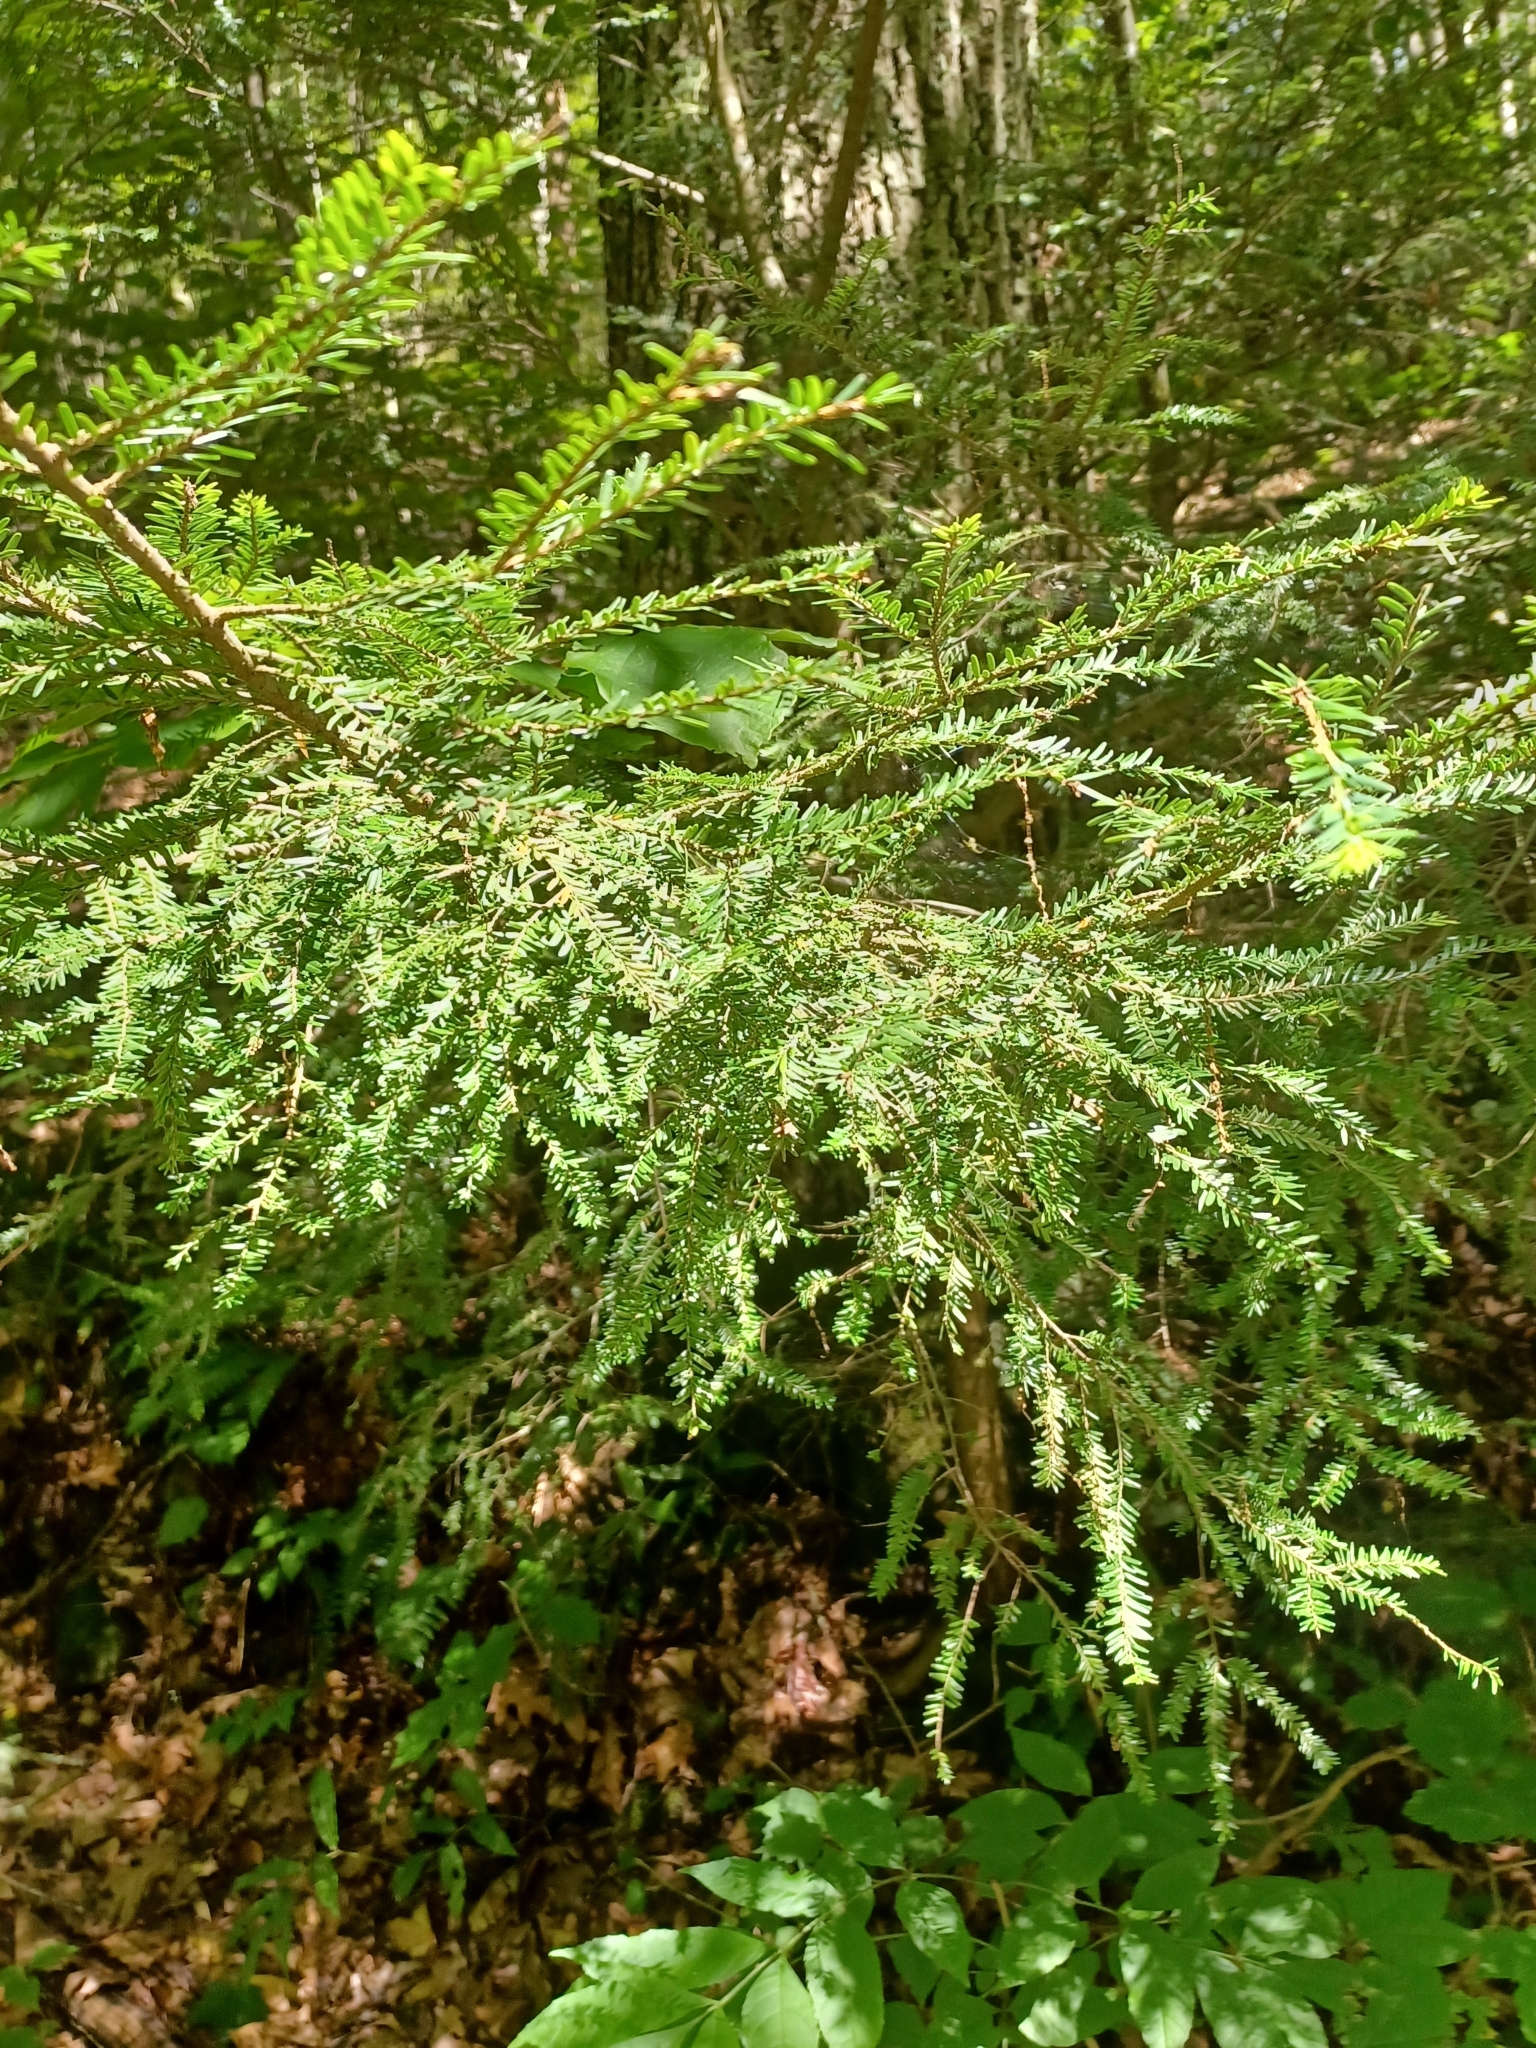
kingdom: Plantae
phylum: Tracheophyta
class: Pinopsida
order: Pinales
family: Pinaceae
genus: Tsuga
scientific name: Tsuga canadensis
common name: Eastern hemlock
